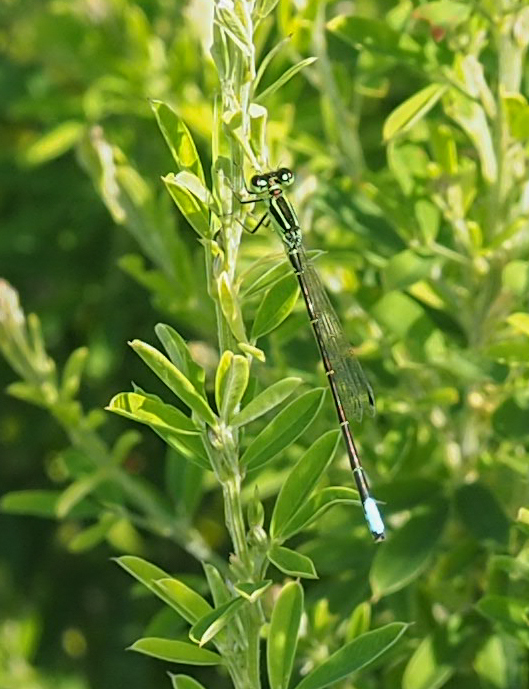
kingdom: Animalia
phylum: Arthropoda
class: Insecta
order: Odonata
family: Coenagrionidae
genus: Ischnura
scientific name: Ischnura verticalis
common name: Eastern forktail
